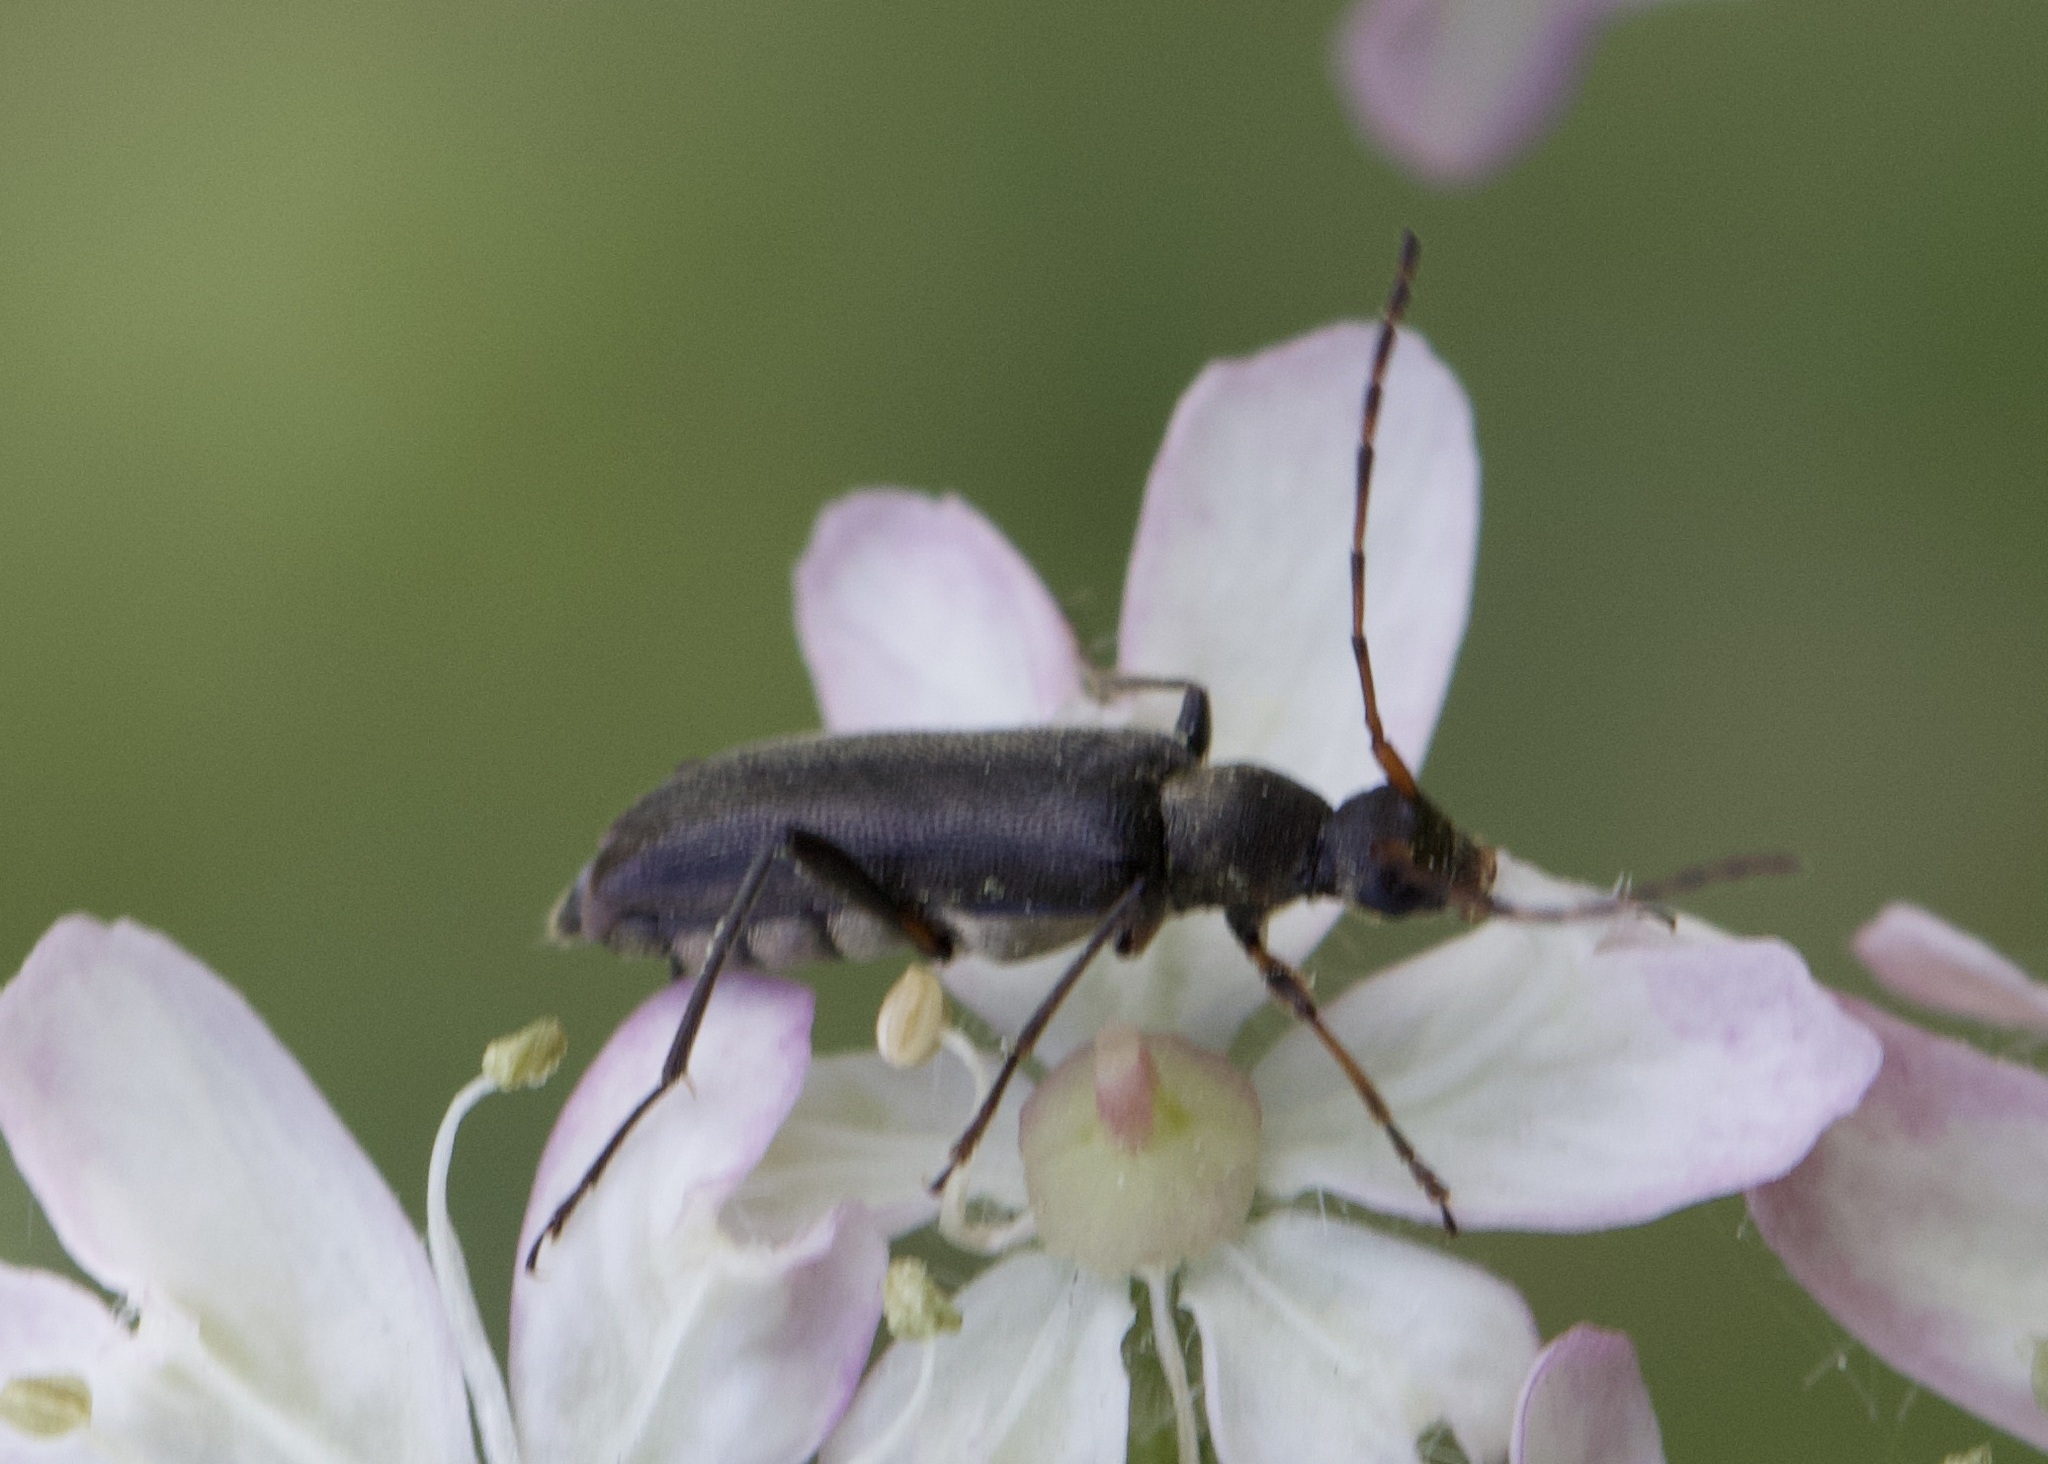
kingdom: Animalia
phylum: Arthropoda
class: Insecta
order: Coleoptera
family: Cerambycidae
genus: Grammoptera
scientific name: Grammoptera ruficornis
